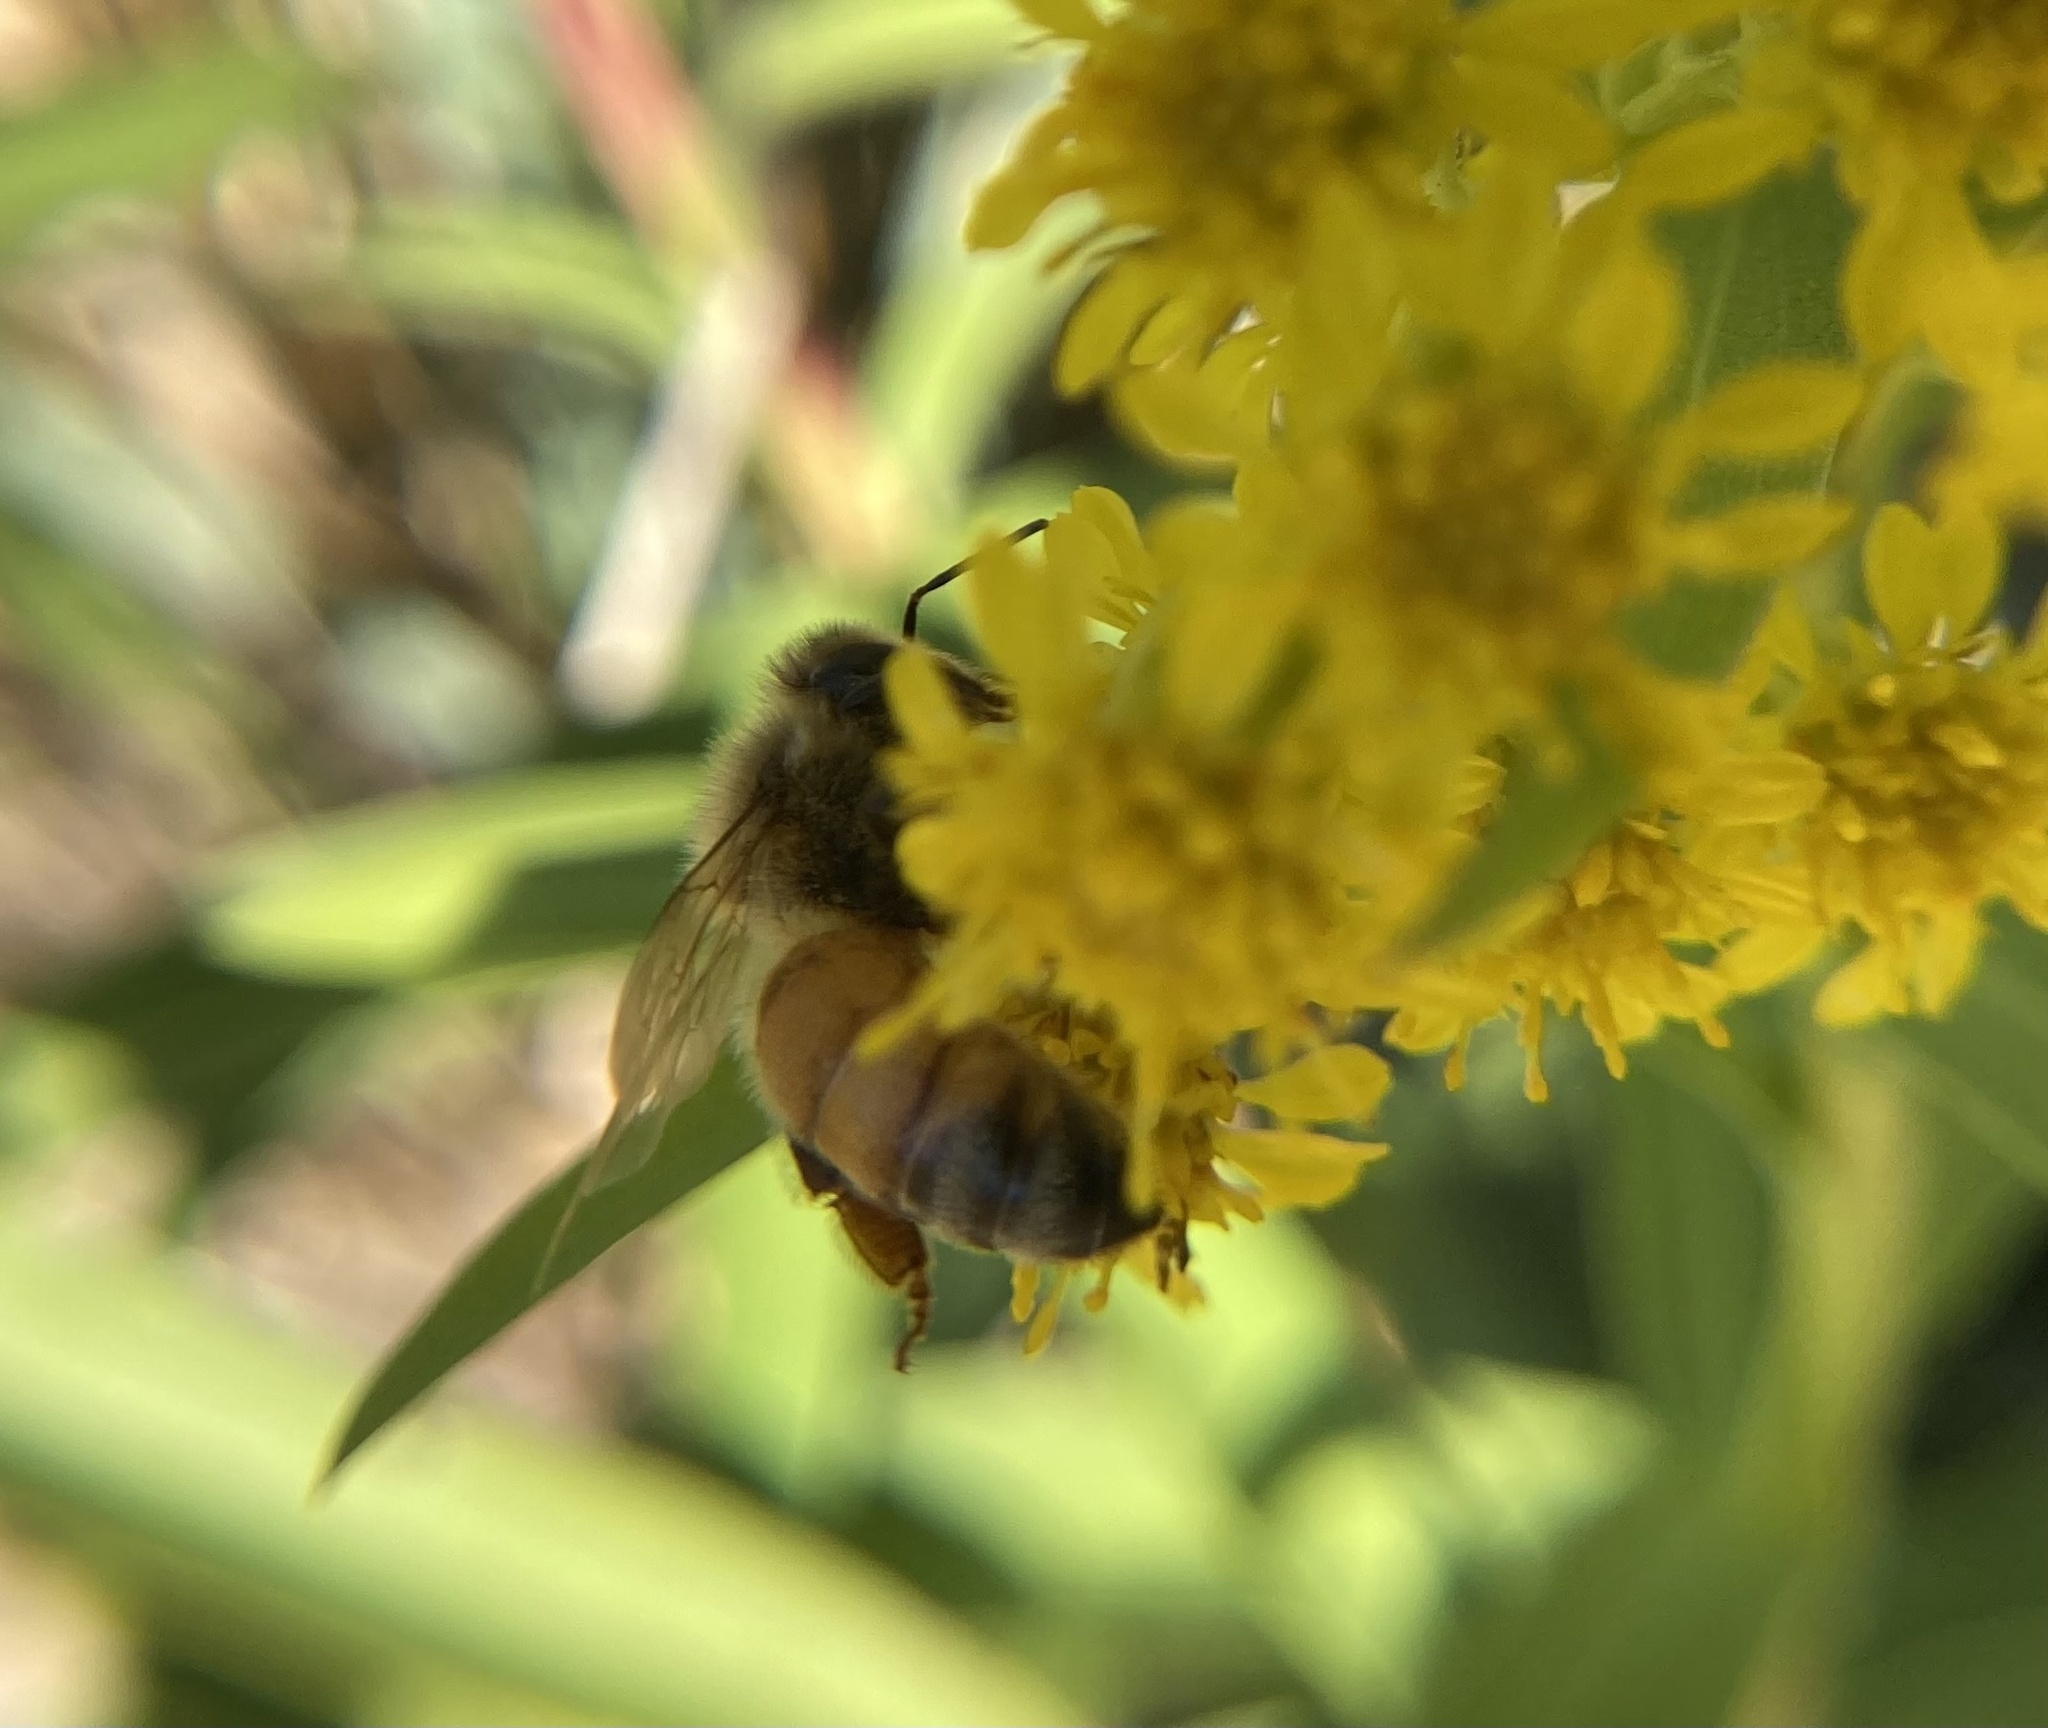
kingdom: Animalia
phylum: Arthropoda
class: Insecta
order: Hymenoptera
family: Apidae
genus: Apis
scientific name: Apis mellifera
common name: Honey bee
